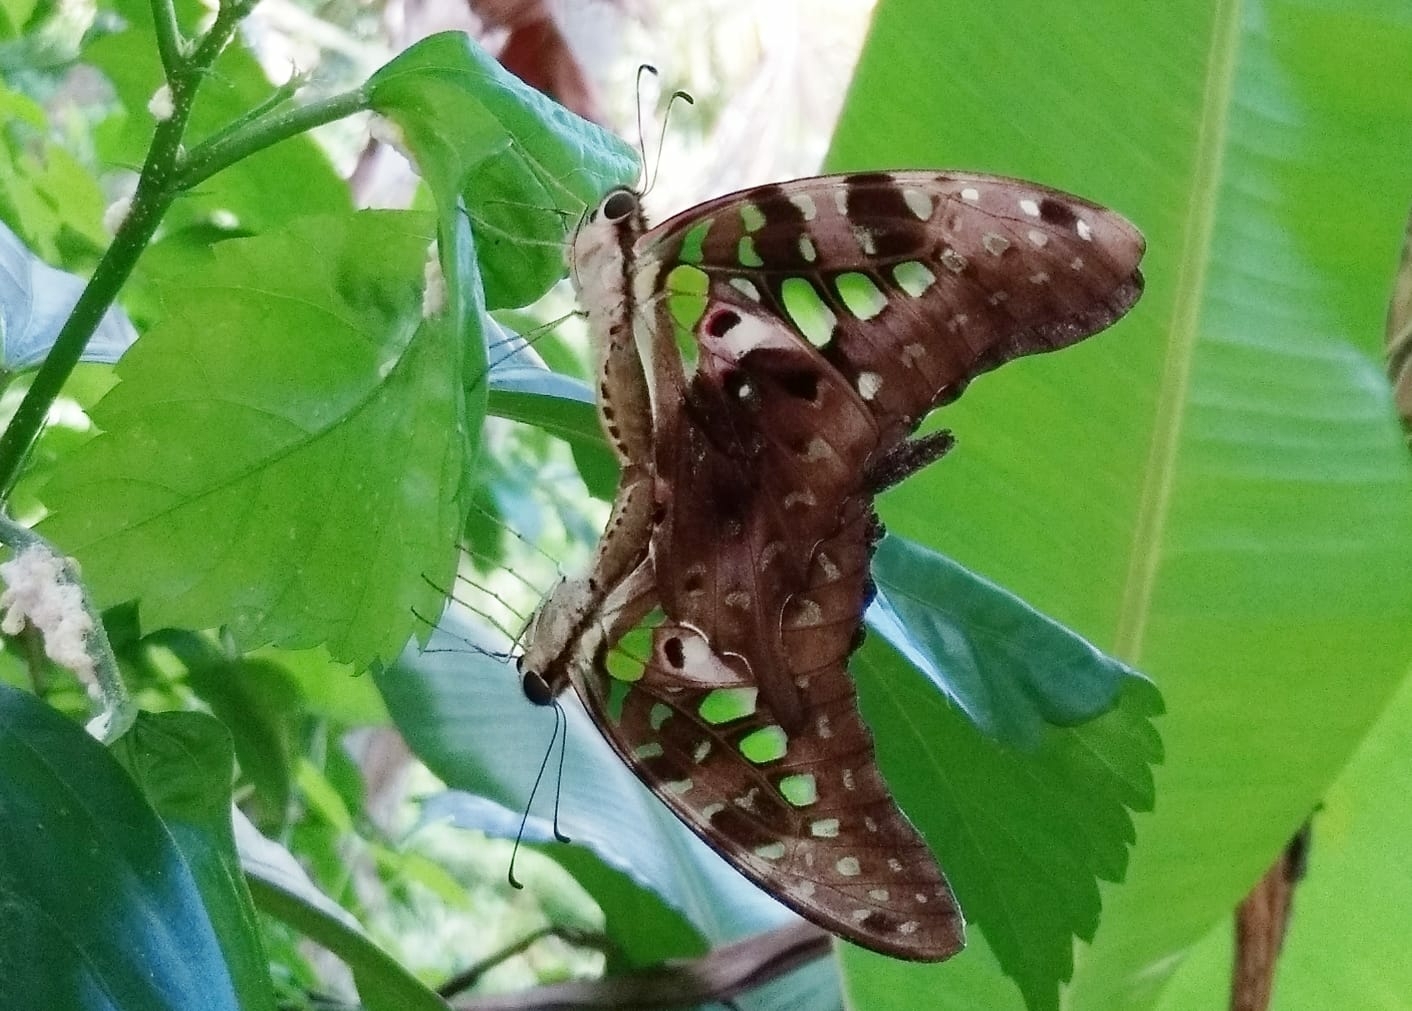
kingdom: Animalia
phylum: Arthropoda
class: Insecta
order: Lepidoptera
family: Papilionidae
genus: Graphium
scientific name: Graphium agamemnon
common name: Tailed jay
